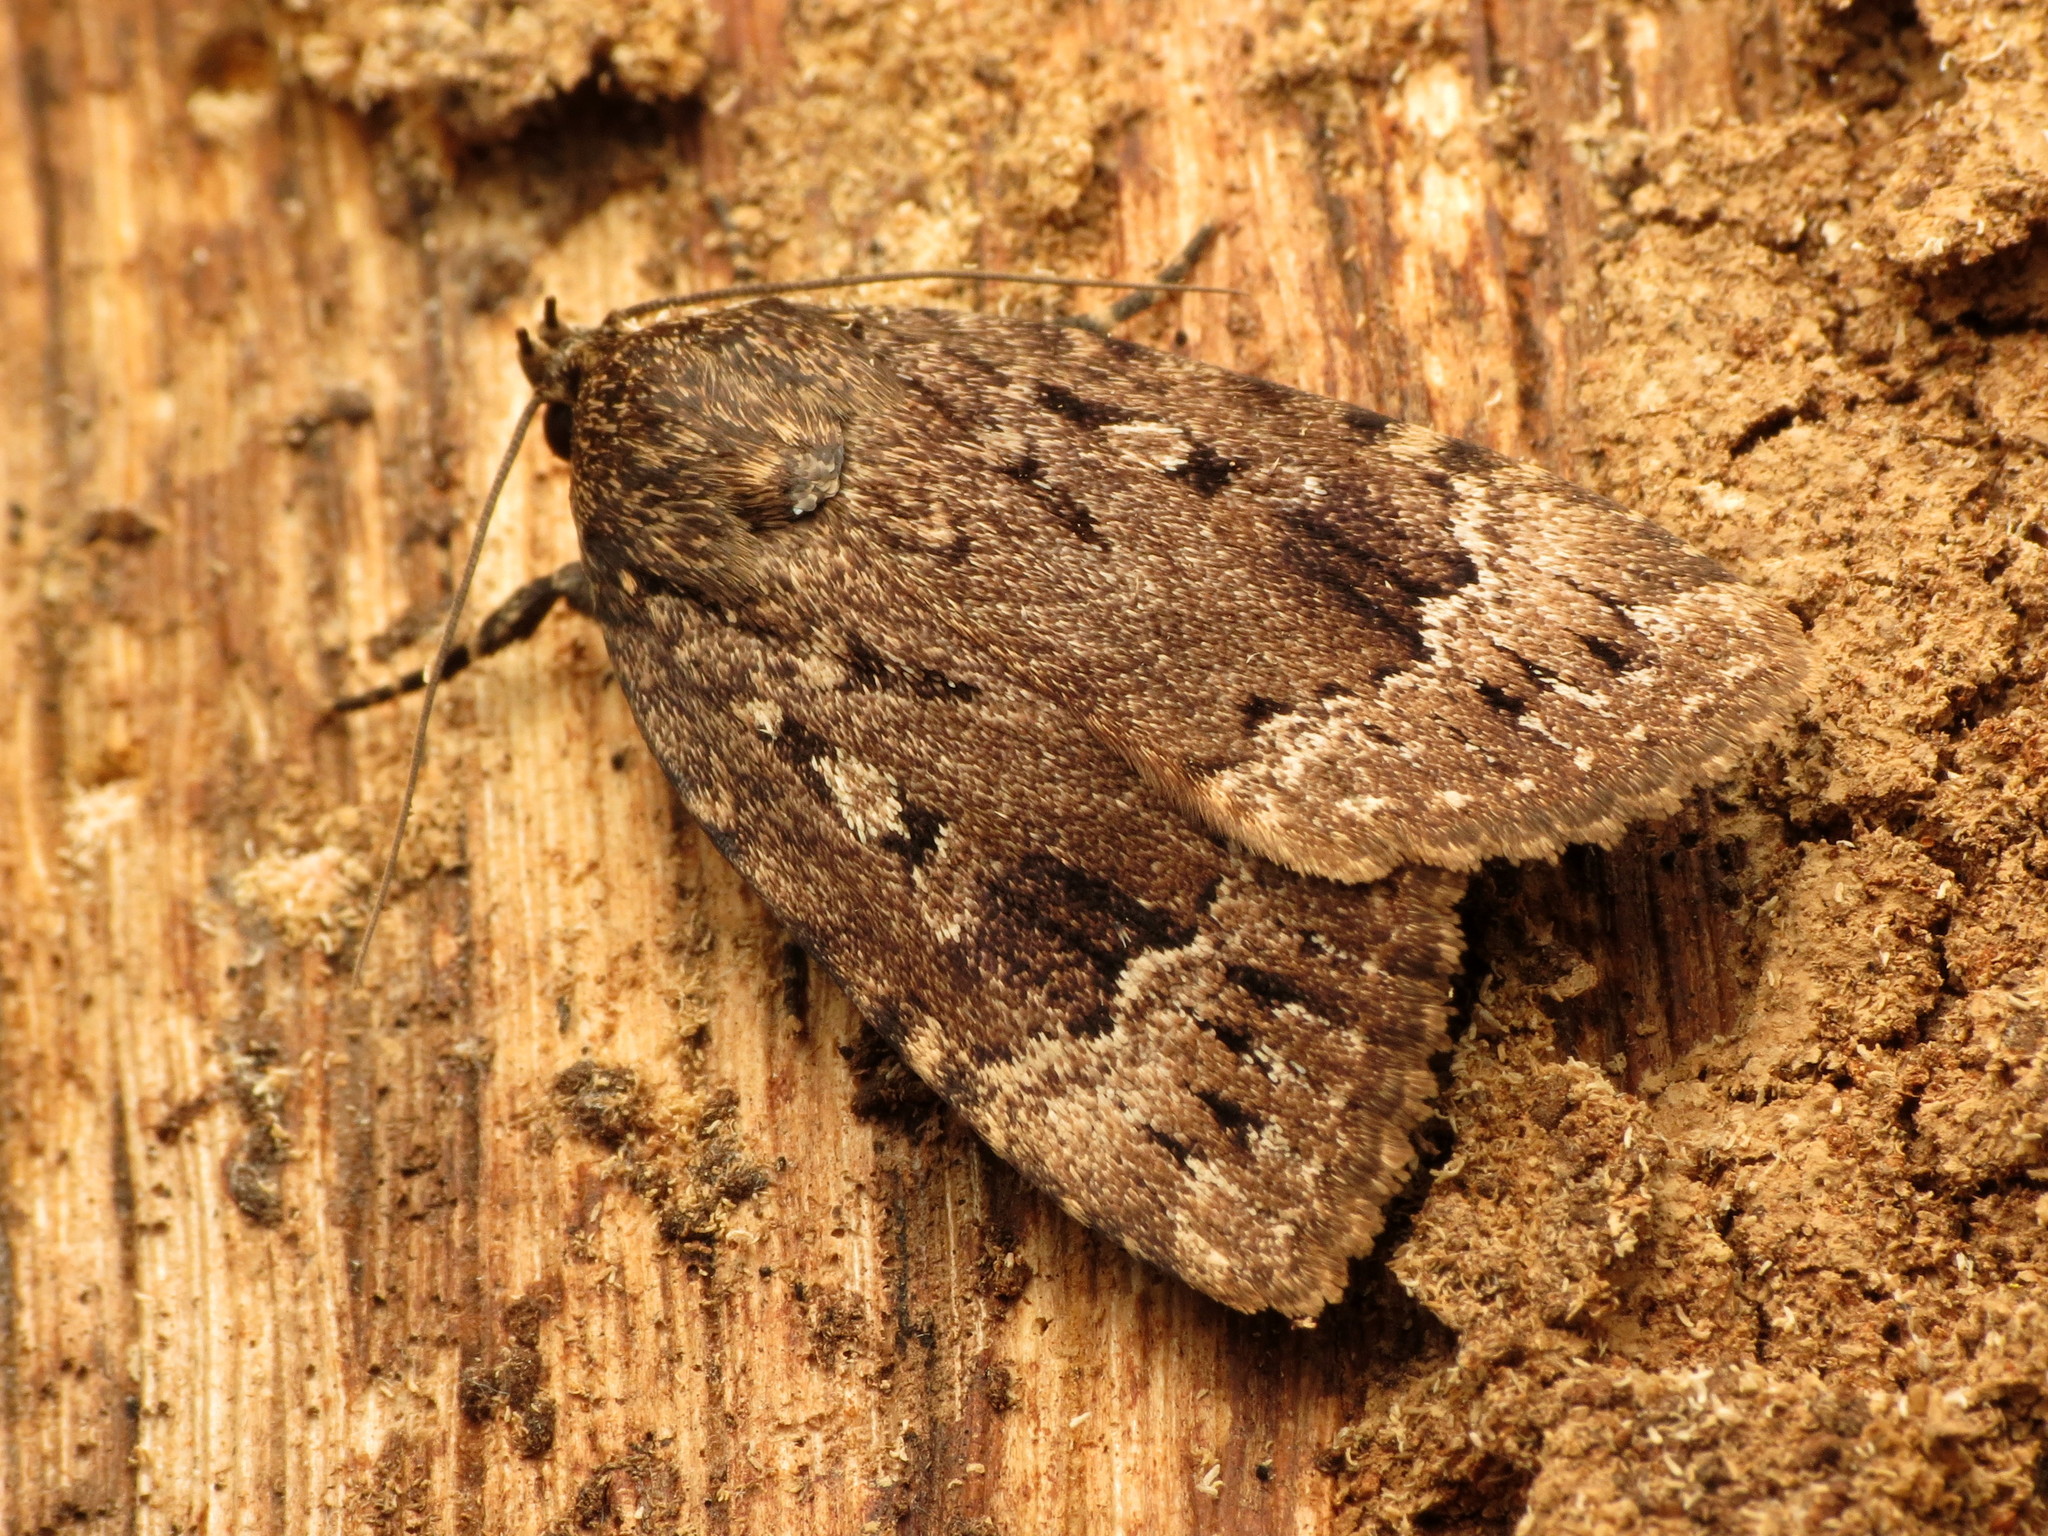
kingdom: Animalia
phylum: Arthropoda
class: Insecta
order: Lepidoptera
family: Noctuidae
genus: Amphipyra
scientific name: Amphipyra pyramidoides
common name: American copper underwing
